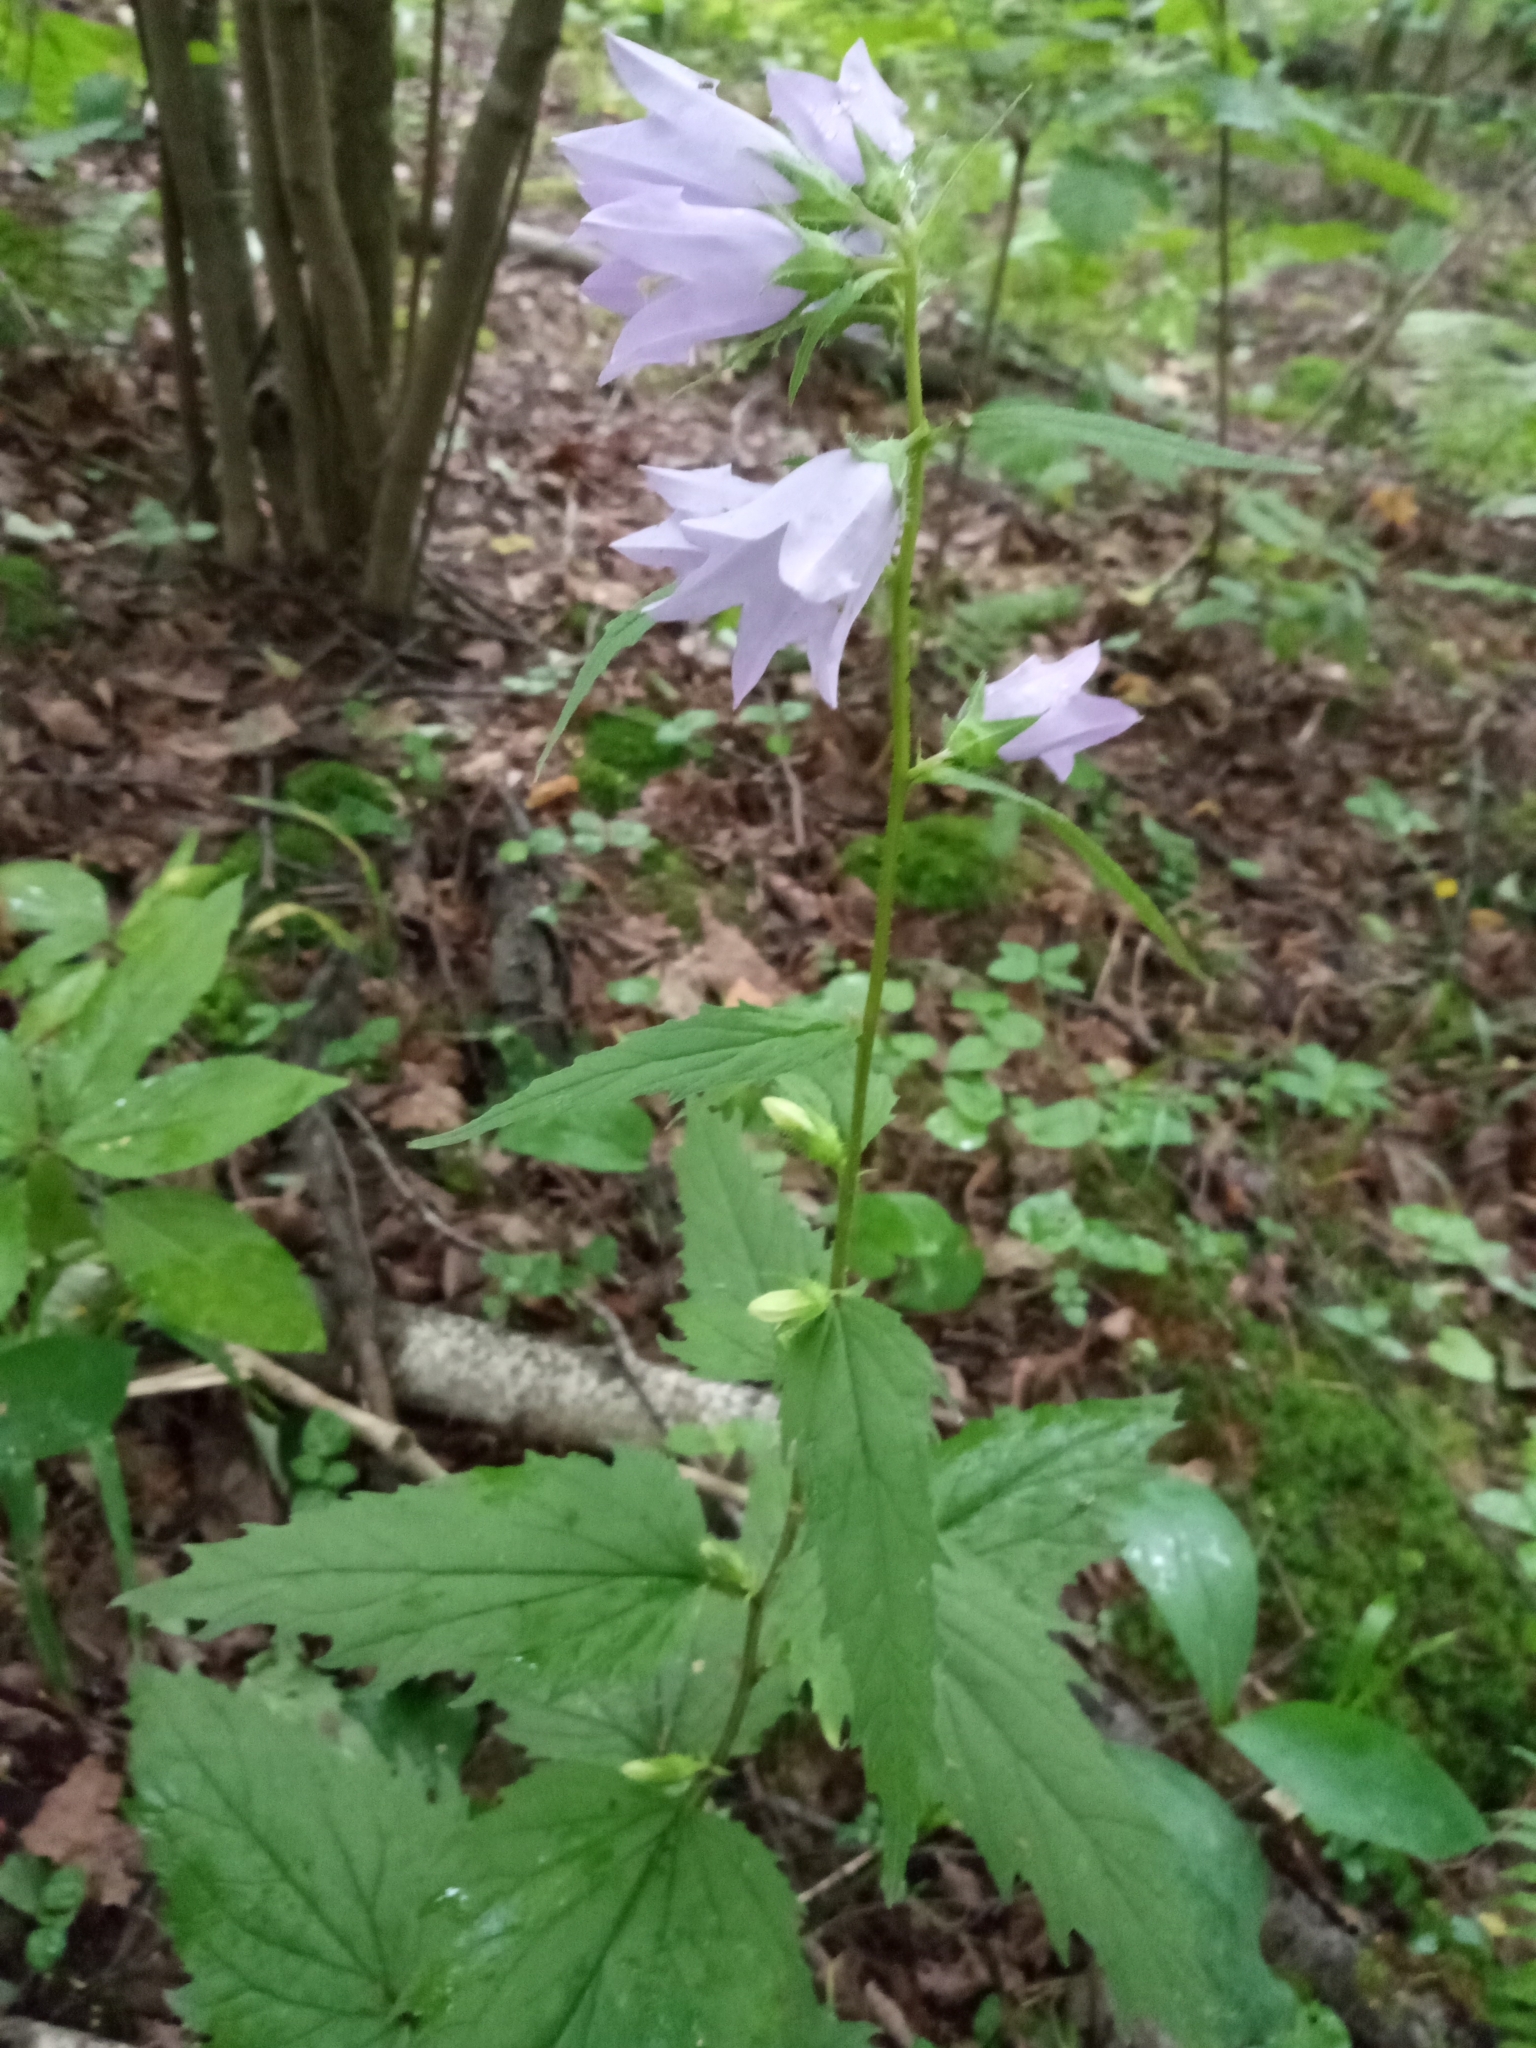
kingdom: Plantae
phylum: Tracheophyta
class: Magnoliopsida
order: Asterales
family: Campanulaceae
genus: Campanula
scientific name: Campanula trachelium
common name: Nettle-leaved bellflower
